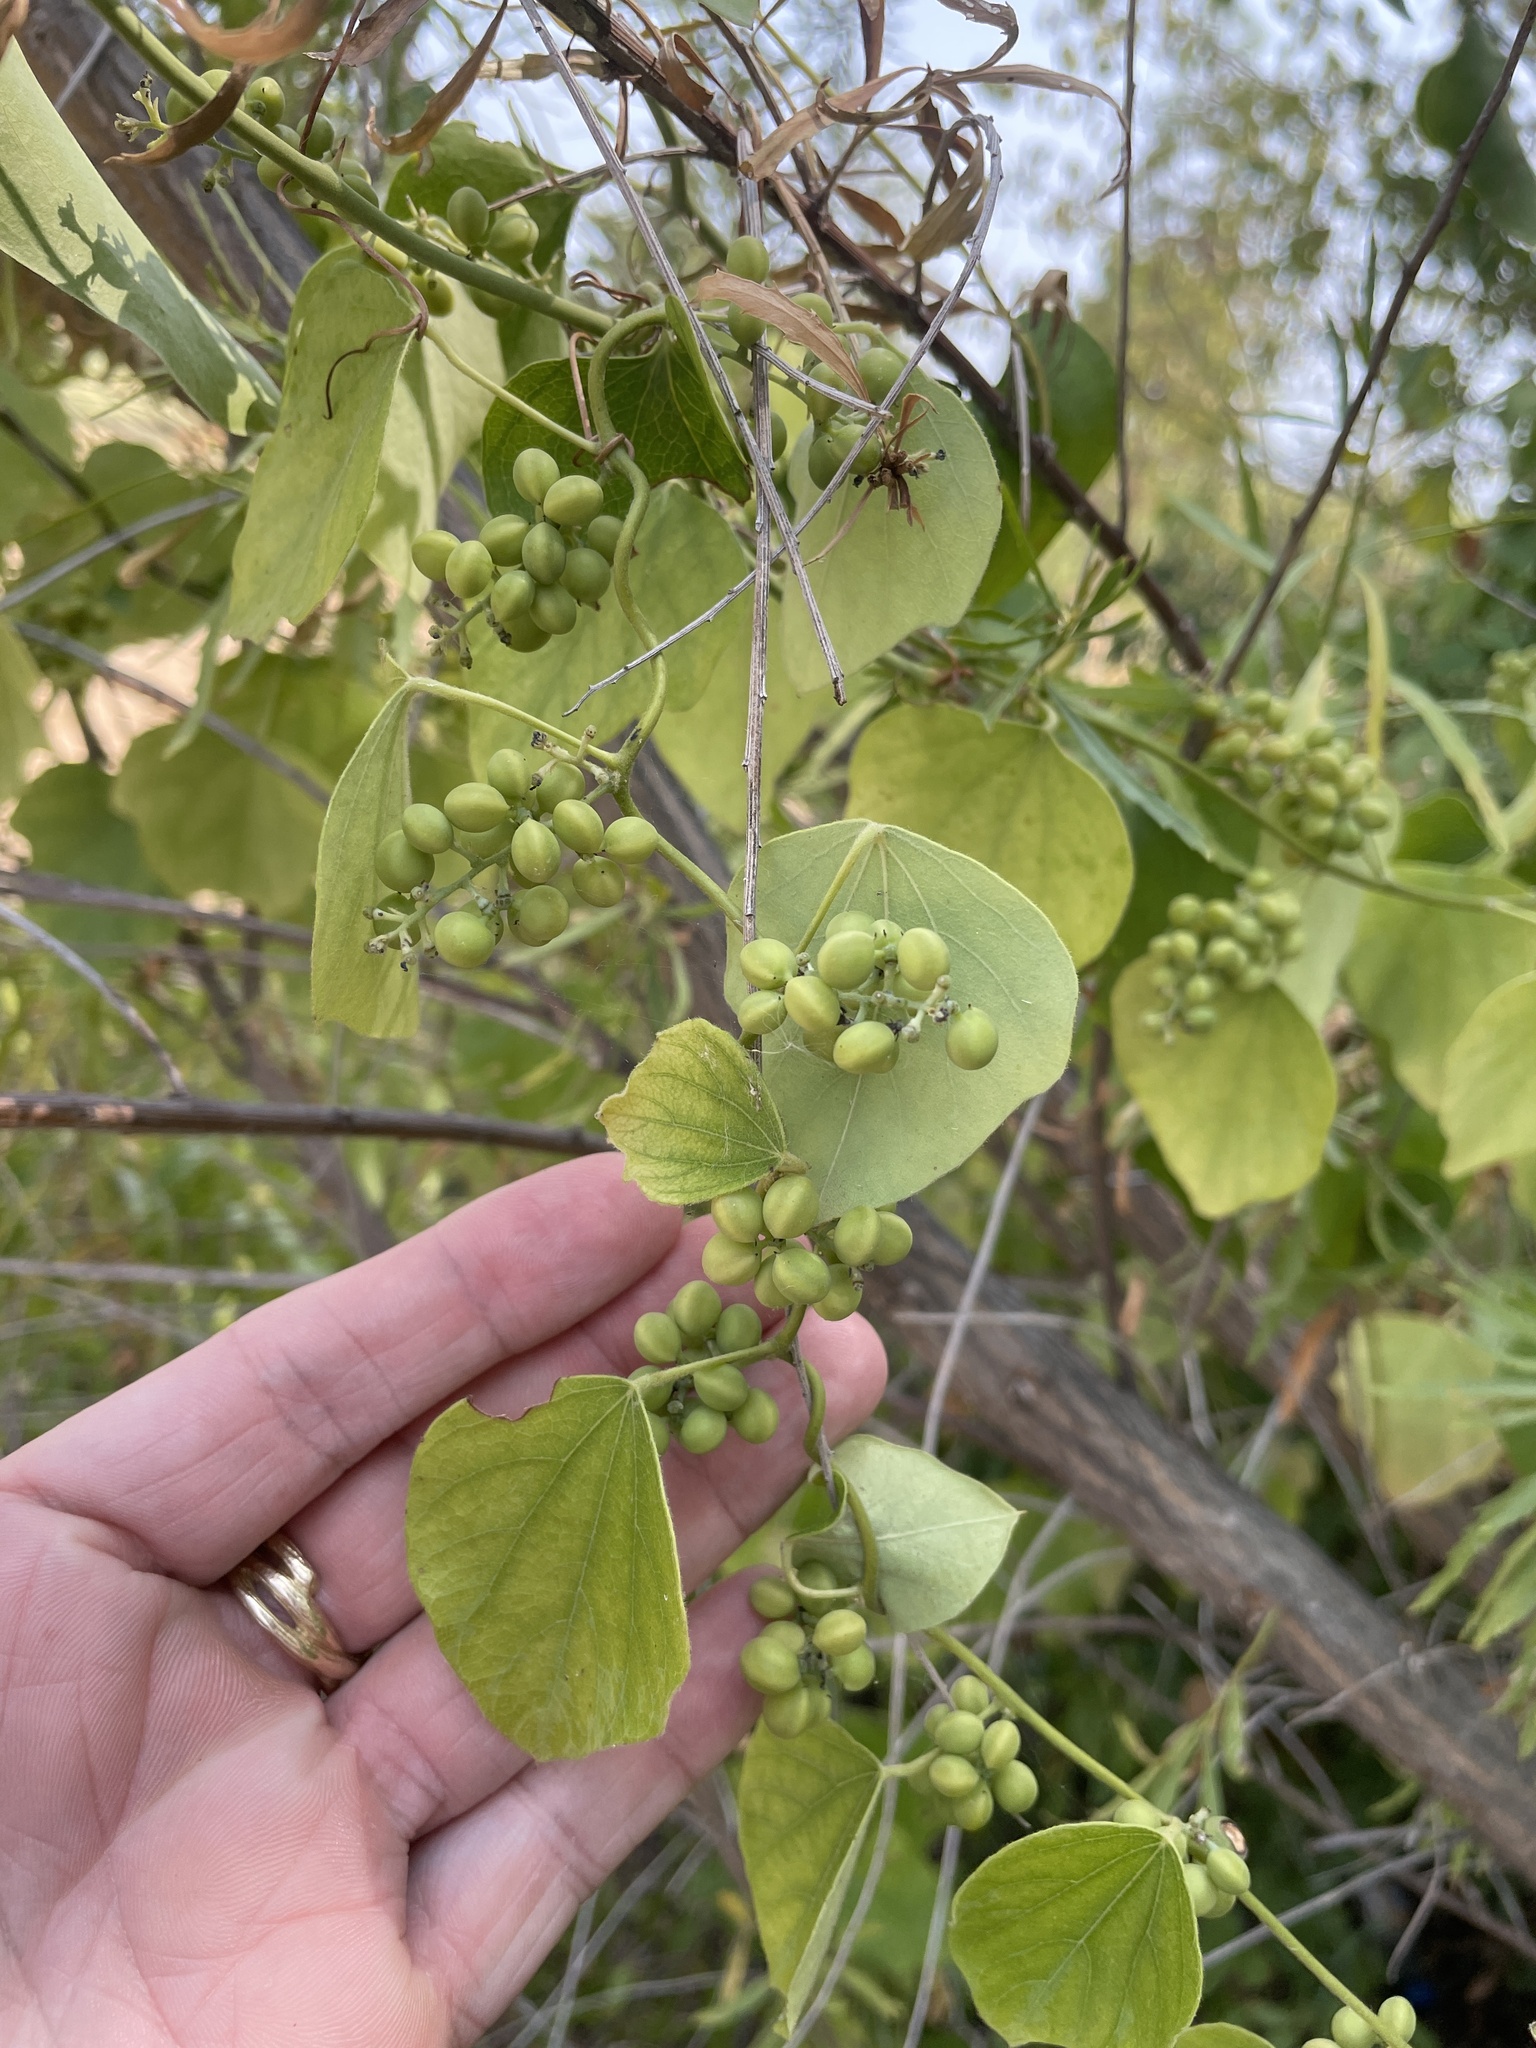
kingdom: Plantae
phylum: Tracheophyta
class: Magnoliopsida
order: Ranunculales
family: Menispermaceae
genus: Cocculus
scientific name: Cocculus carolinus
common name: Carolina moonseed
